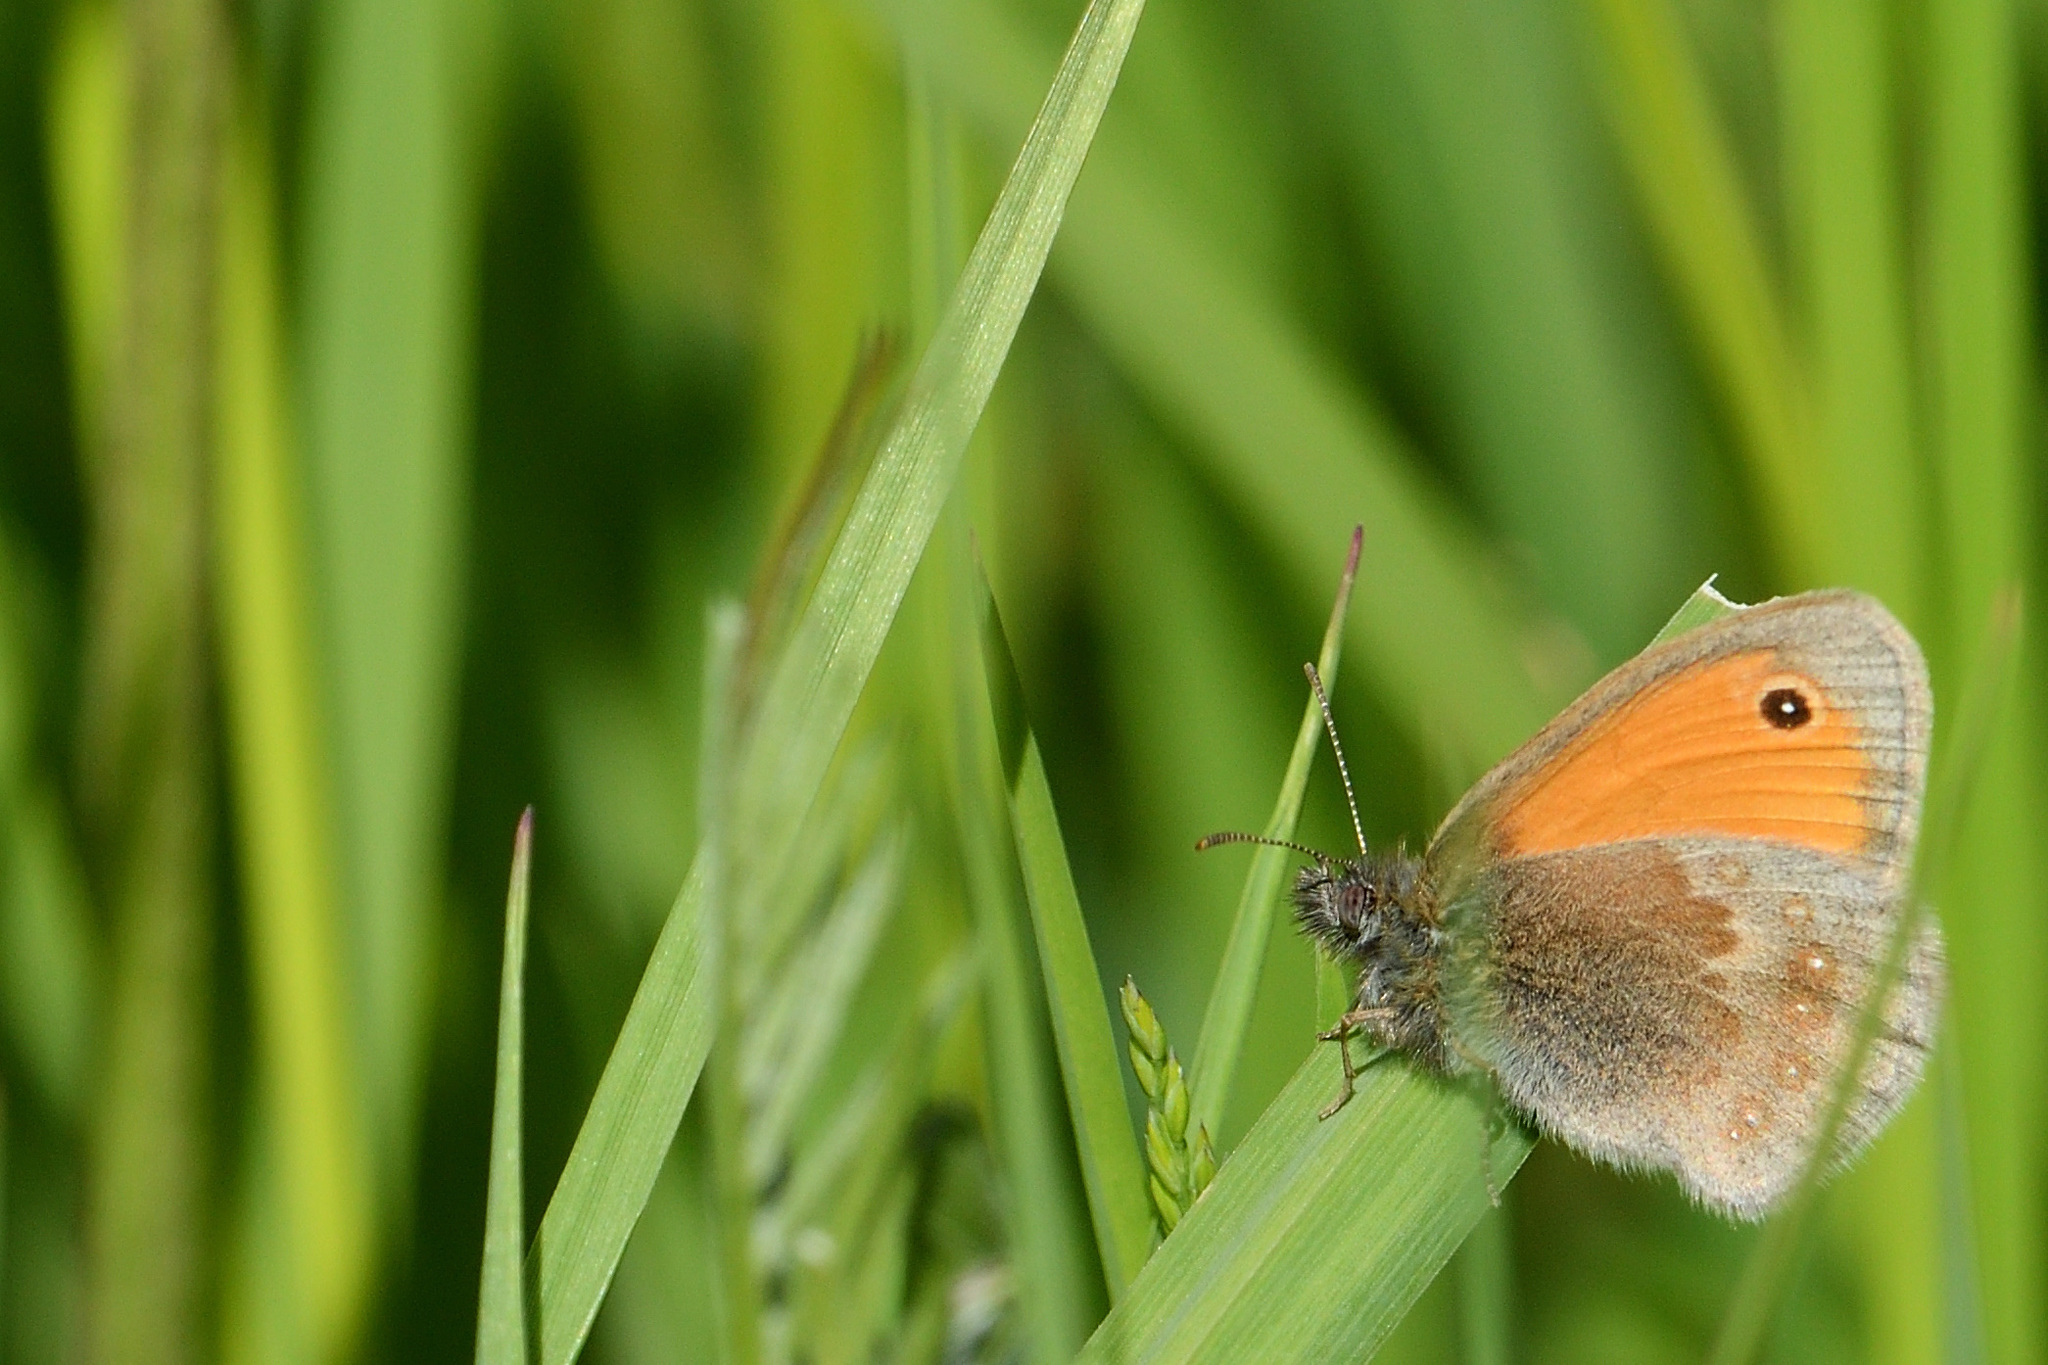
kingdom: Animalia
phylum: Arthropoda
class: Insecta
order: Lepidoptera
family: Nymphalidae
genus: Coenonympha
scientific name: Coenonympha pamphilus
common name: Small heath
